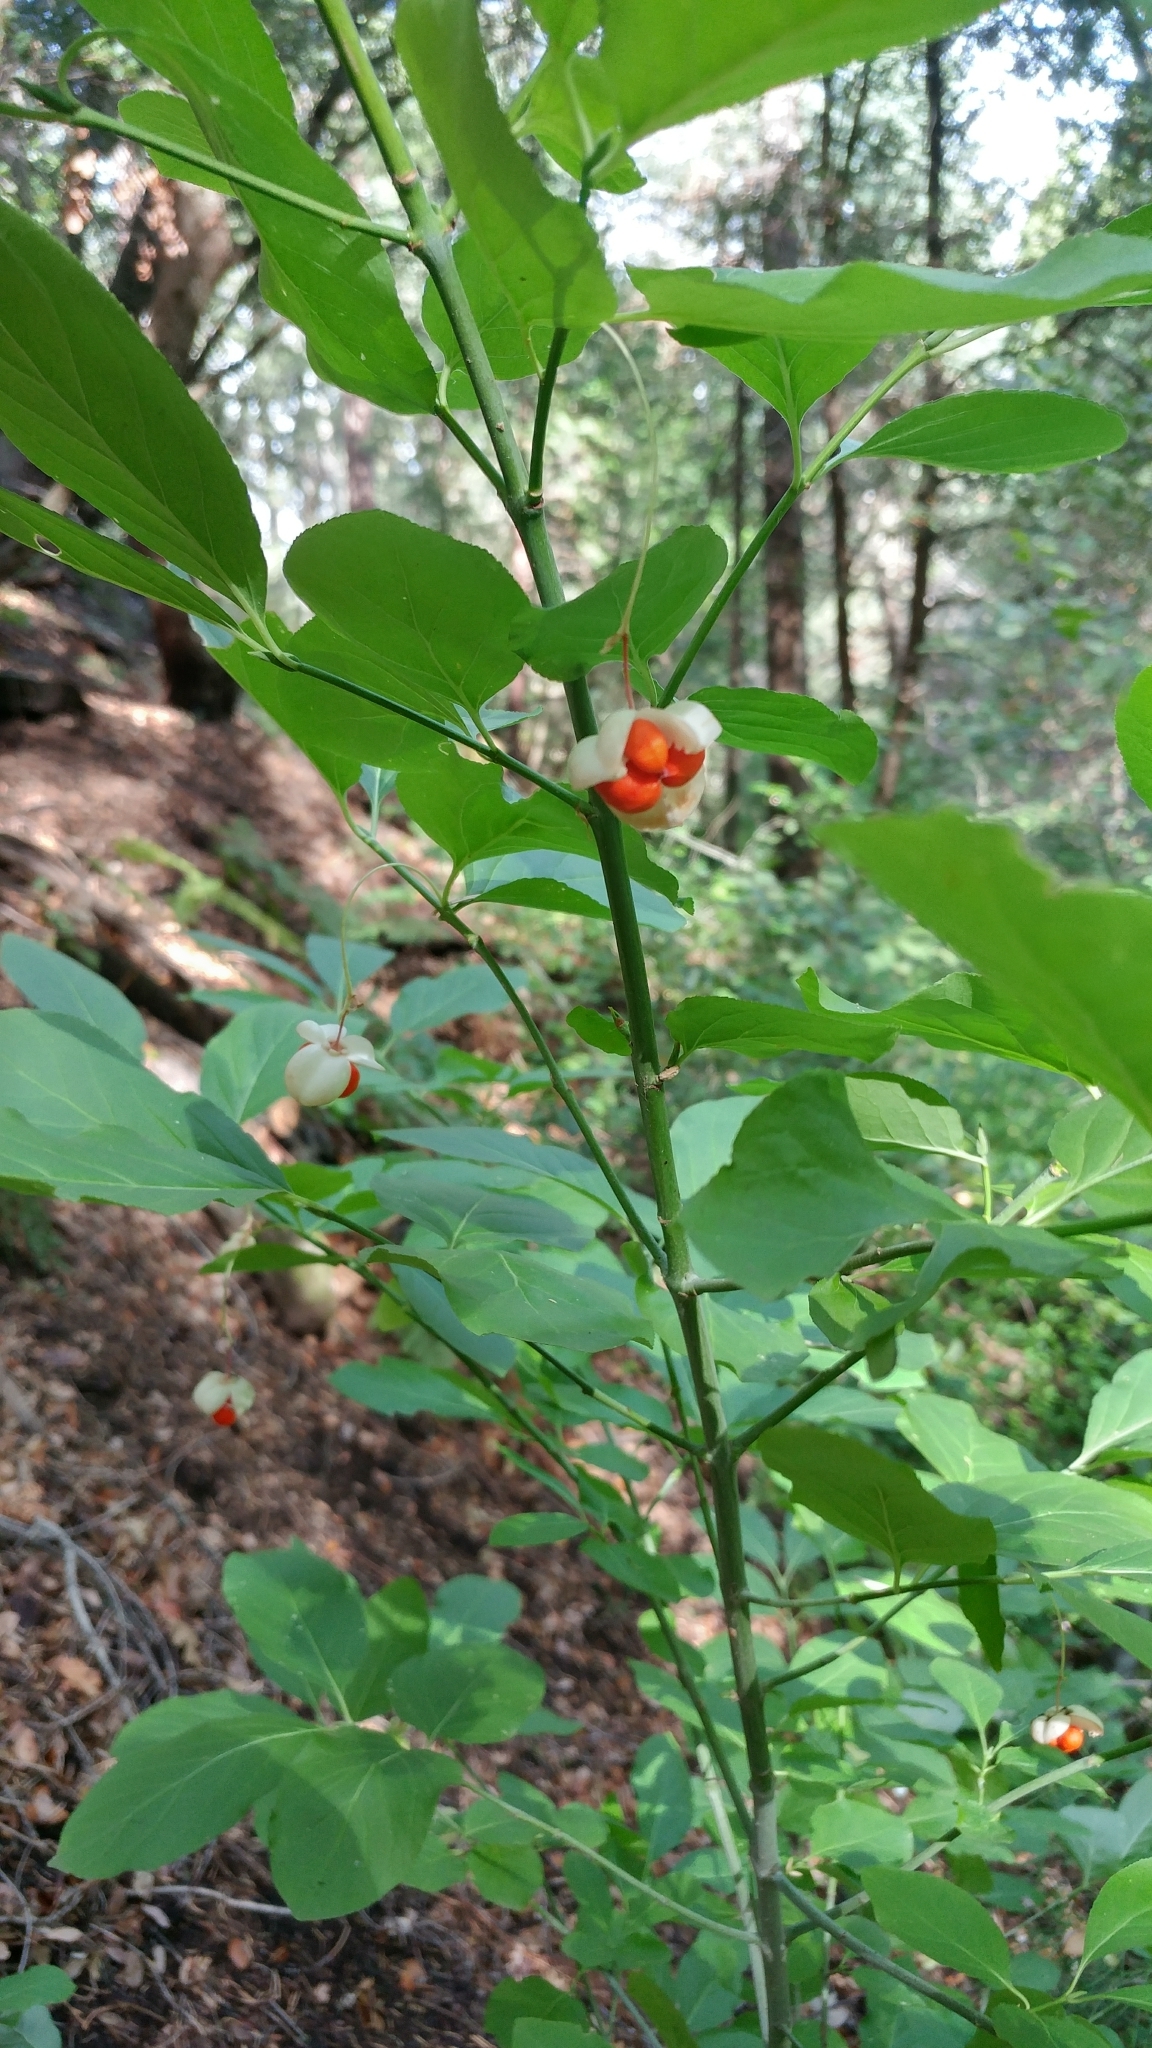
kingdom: Plantae
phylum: Tracheophyta
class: Magnoliopsida
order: Celastrales
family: Celastraceae
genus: Euonymus
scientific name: Euonymus occidentalis
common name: Western burningbush
